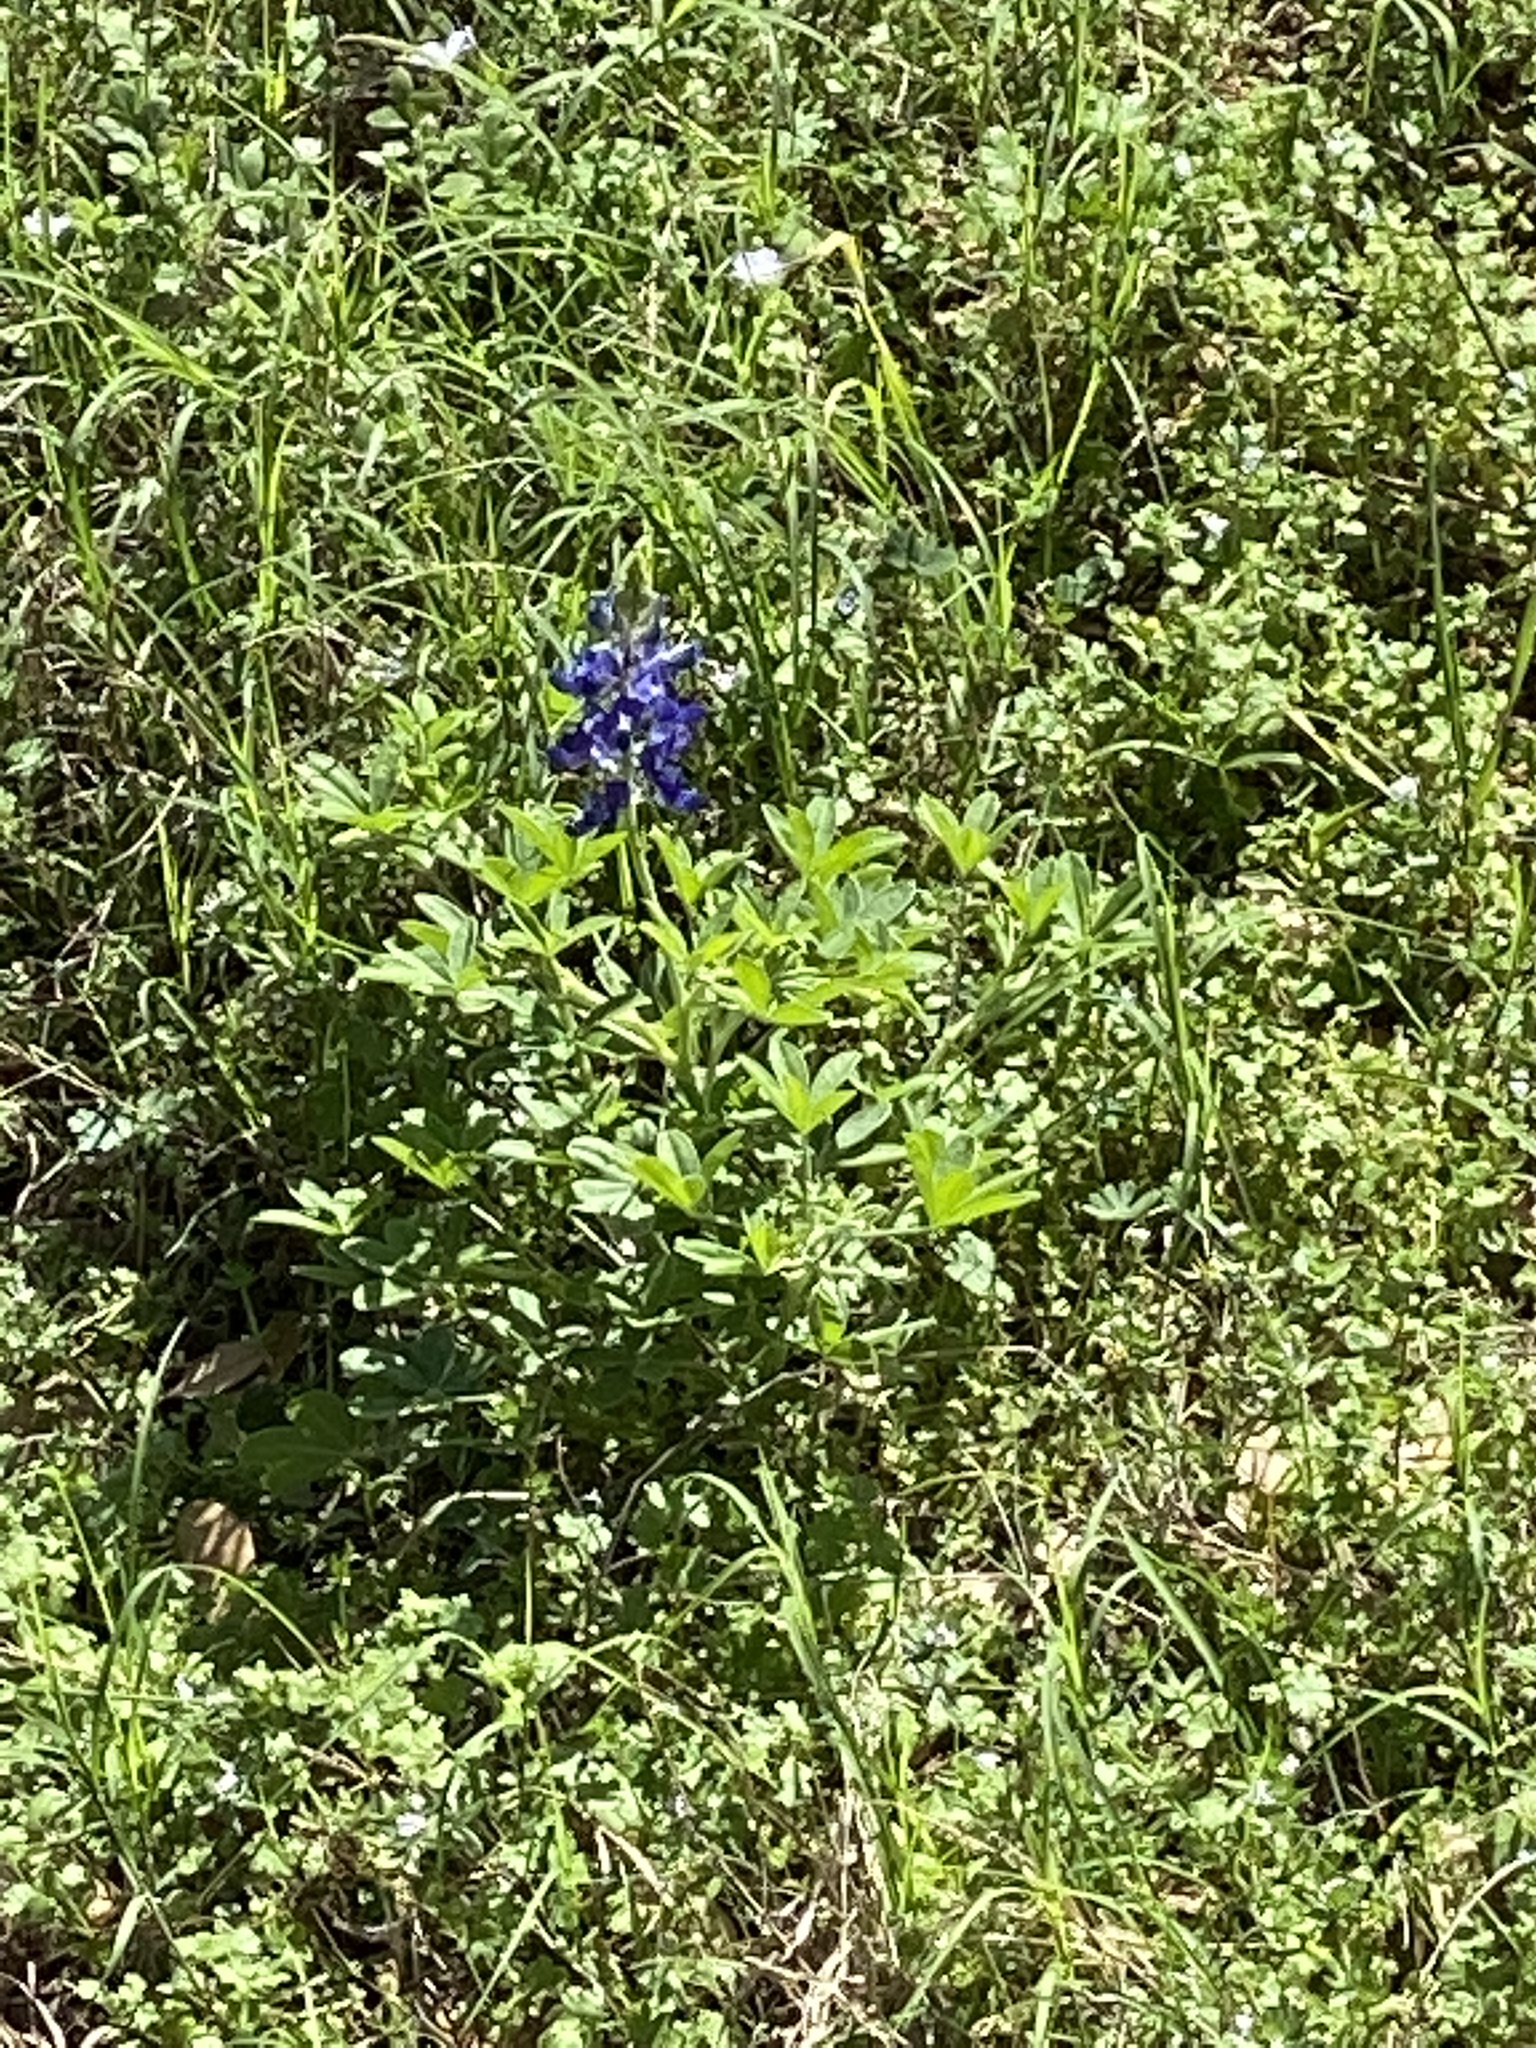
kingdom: Plantae
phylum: Tracheophyta
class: Magnoliopsida
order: Fabales
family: Fabaceae
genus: Lupinus
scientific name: Lupinus texensis
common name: Texas bluebonnet
